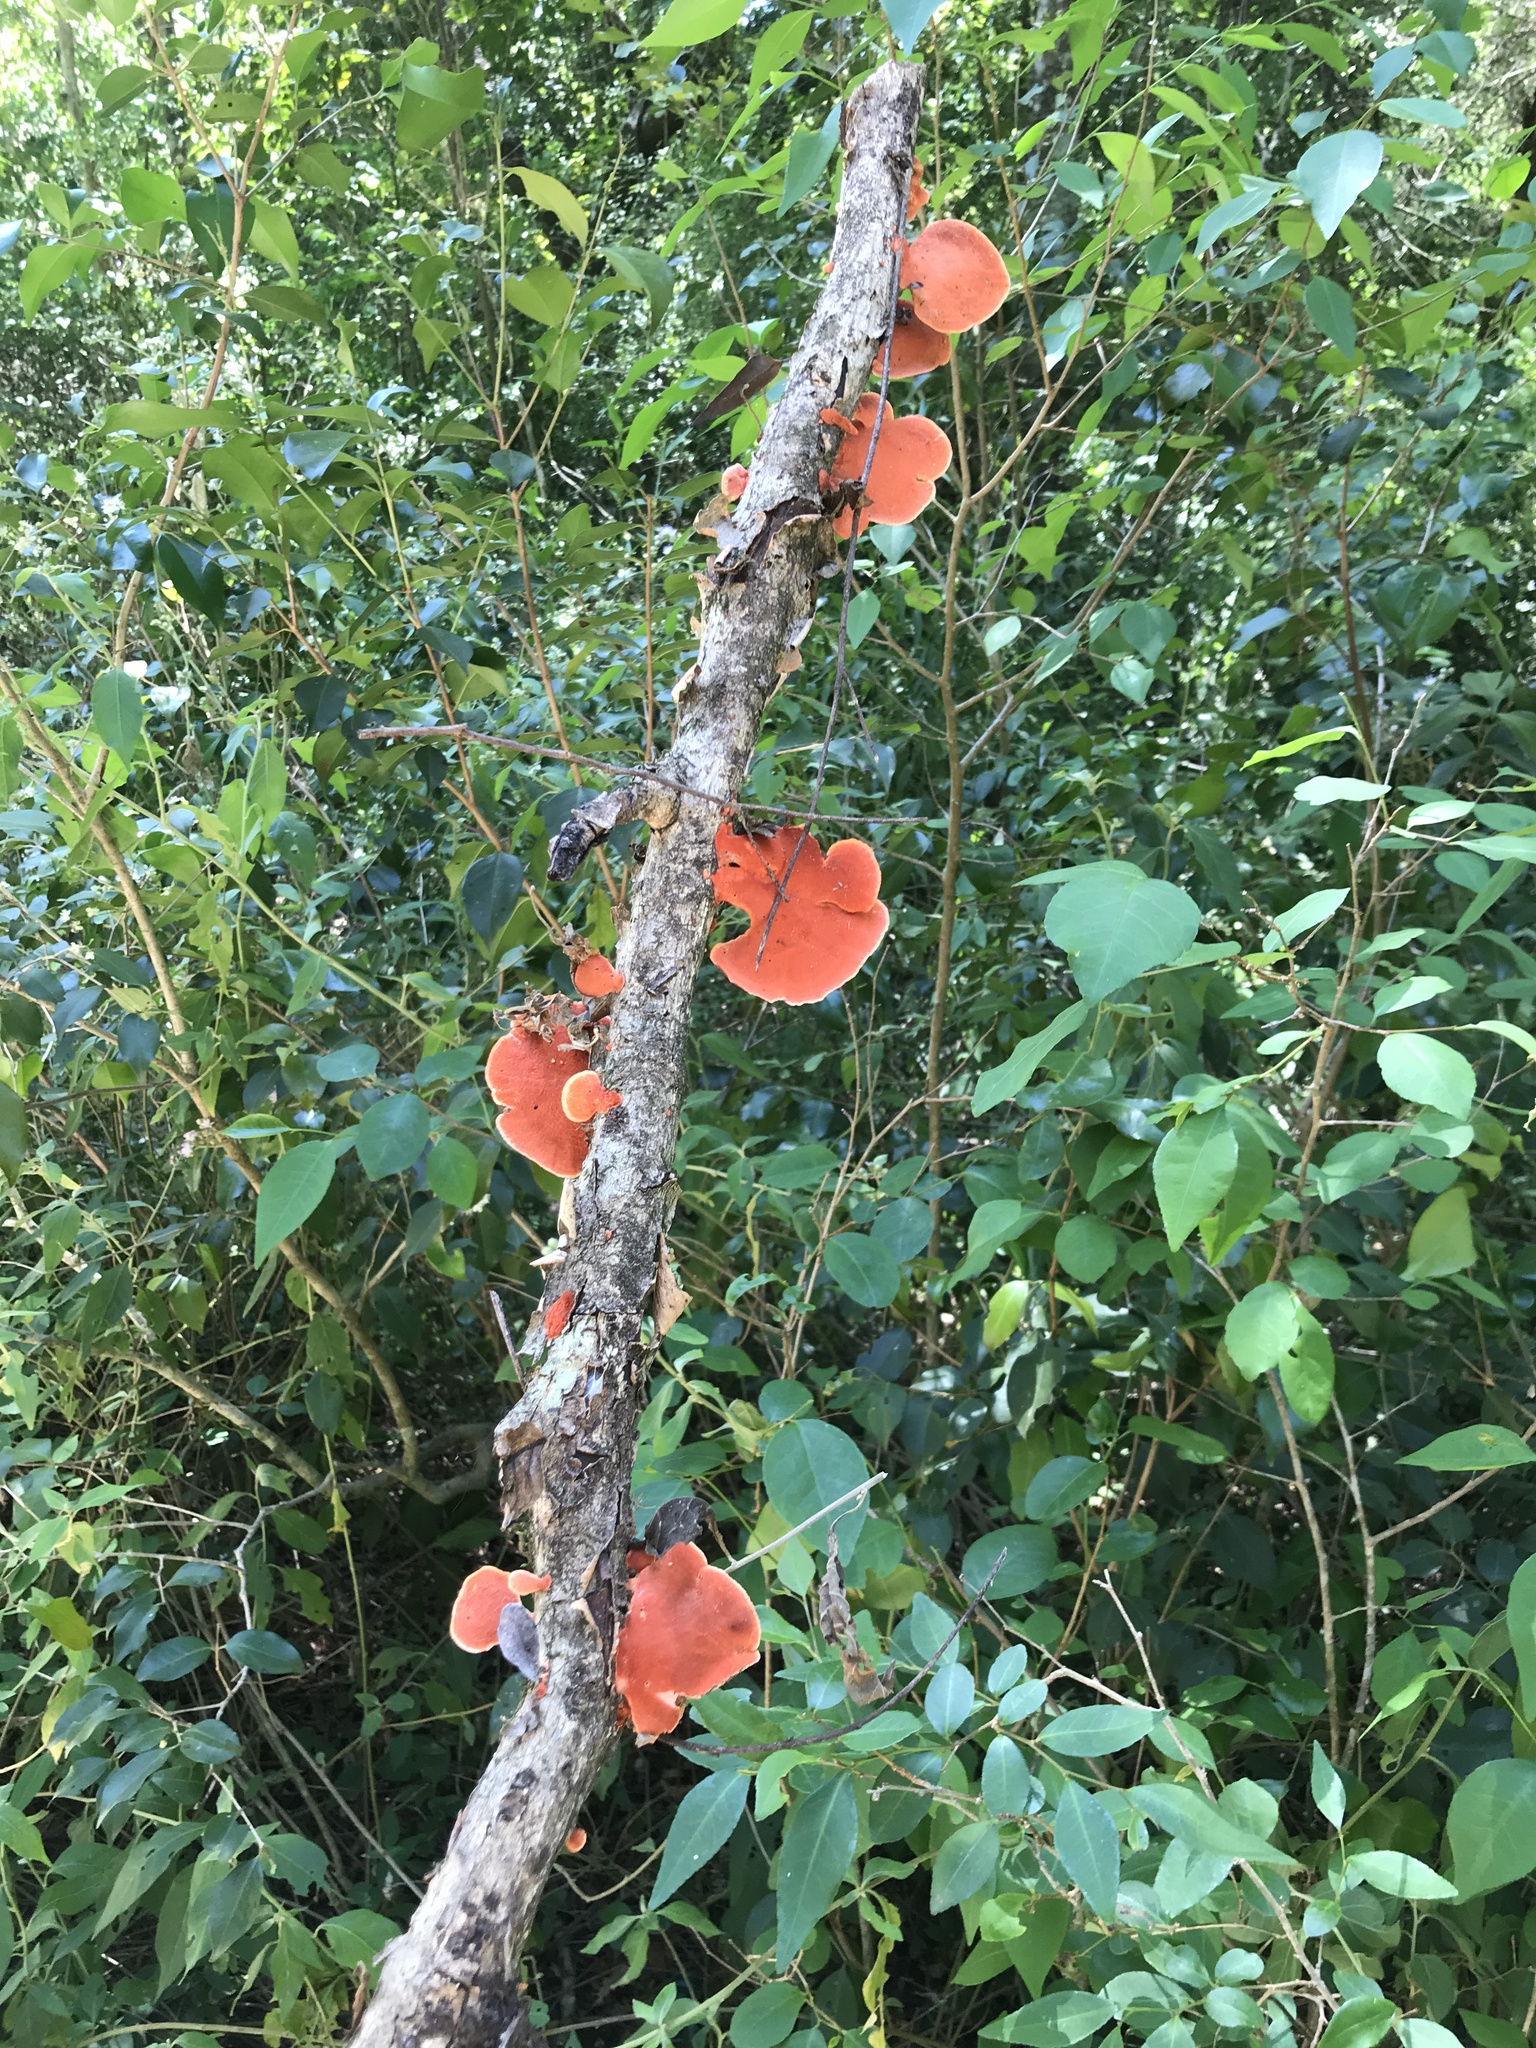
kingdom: Fungi
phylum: Basidiomycota
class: Agaricomycetes
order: Polyporales
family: Polyporaceae
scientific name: Polyporaceae
